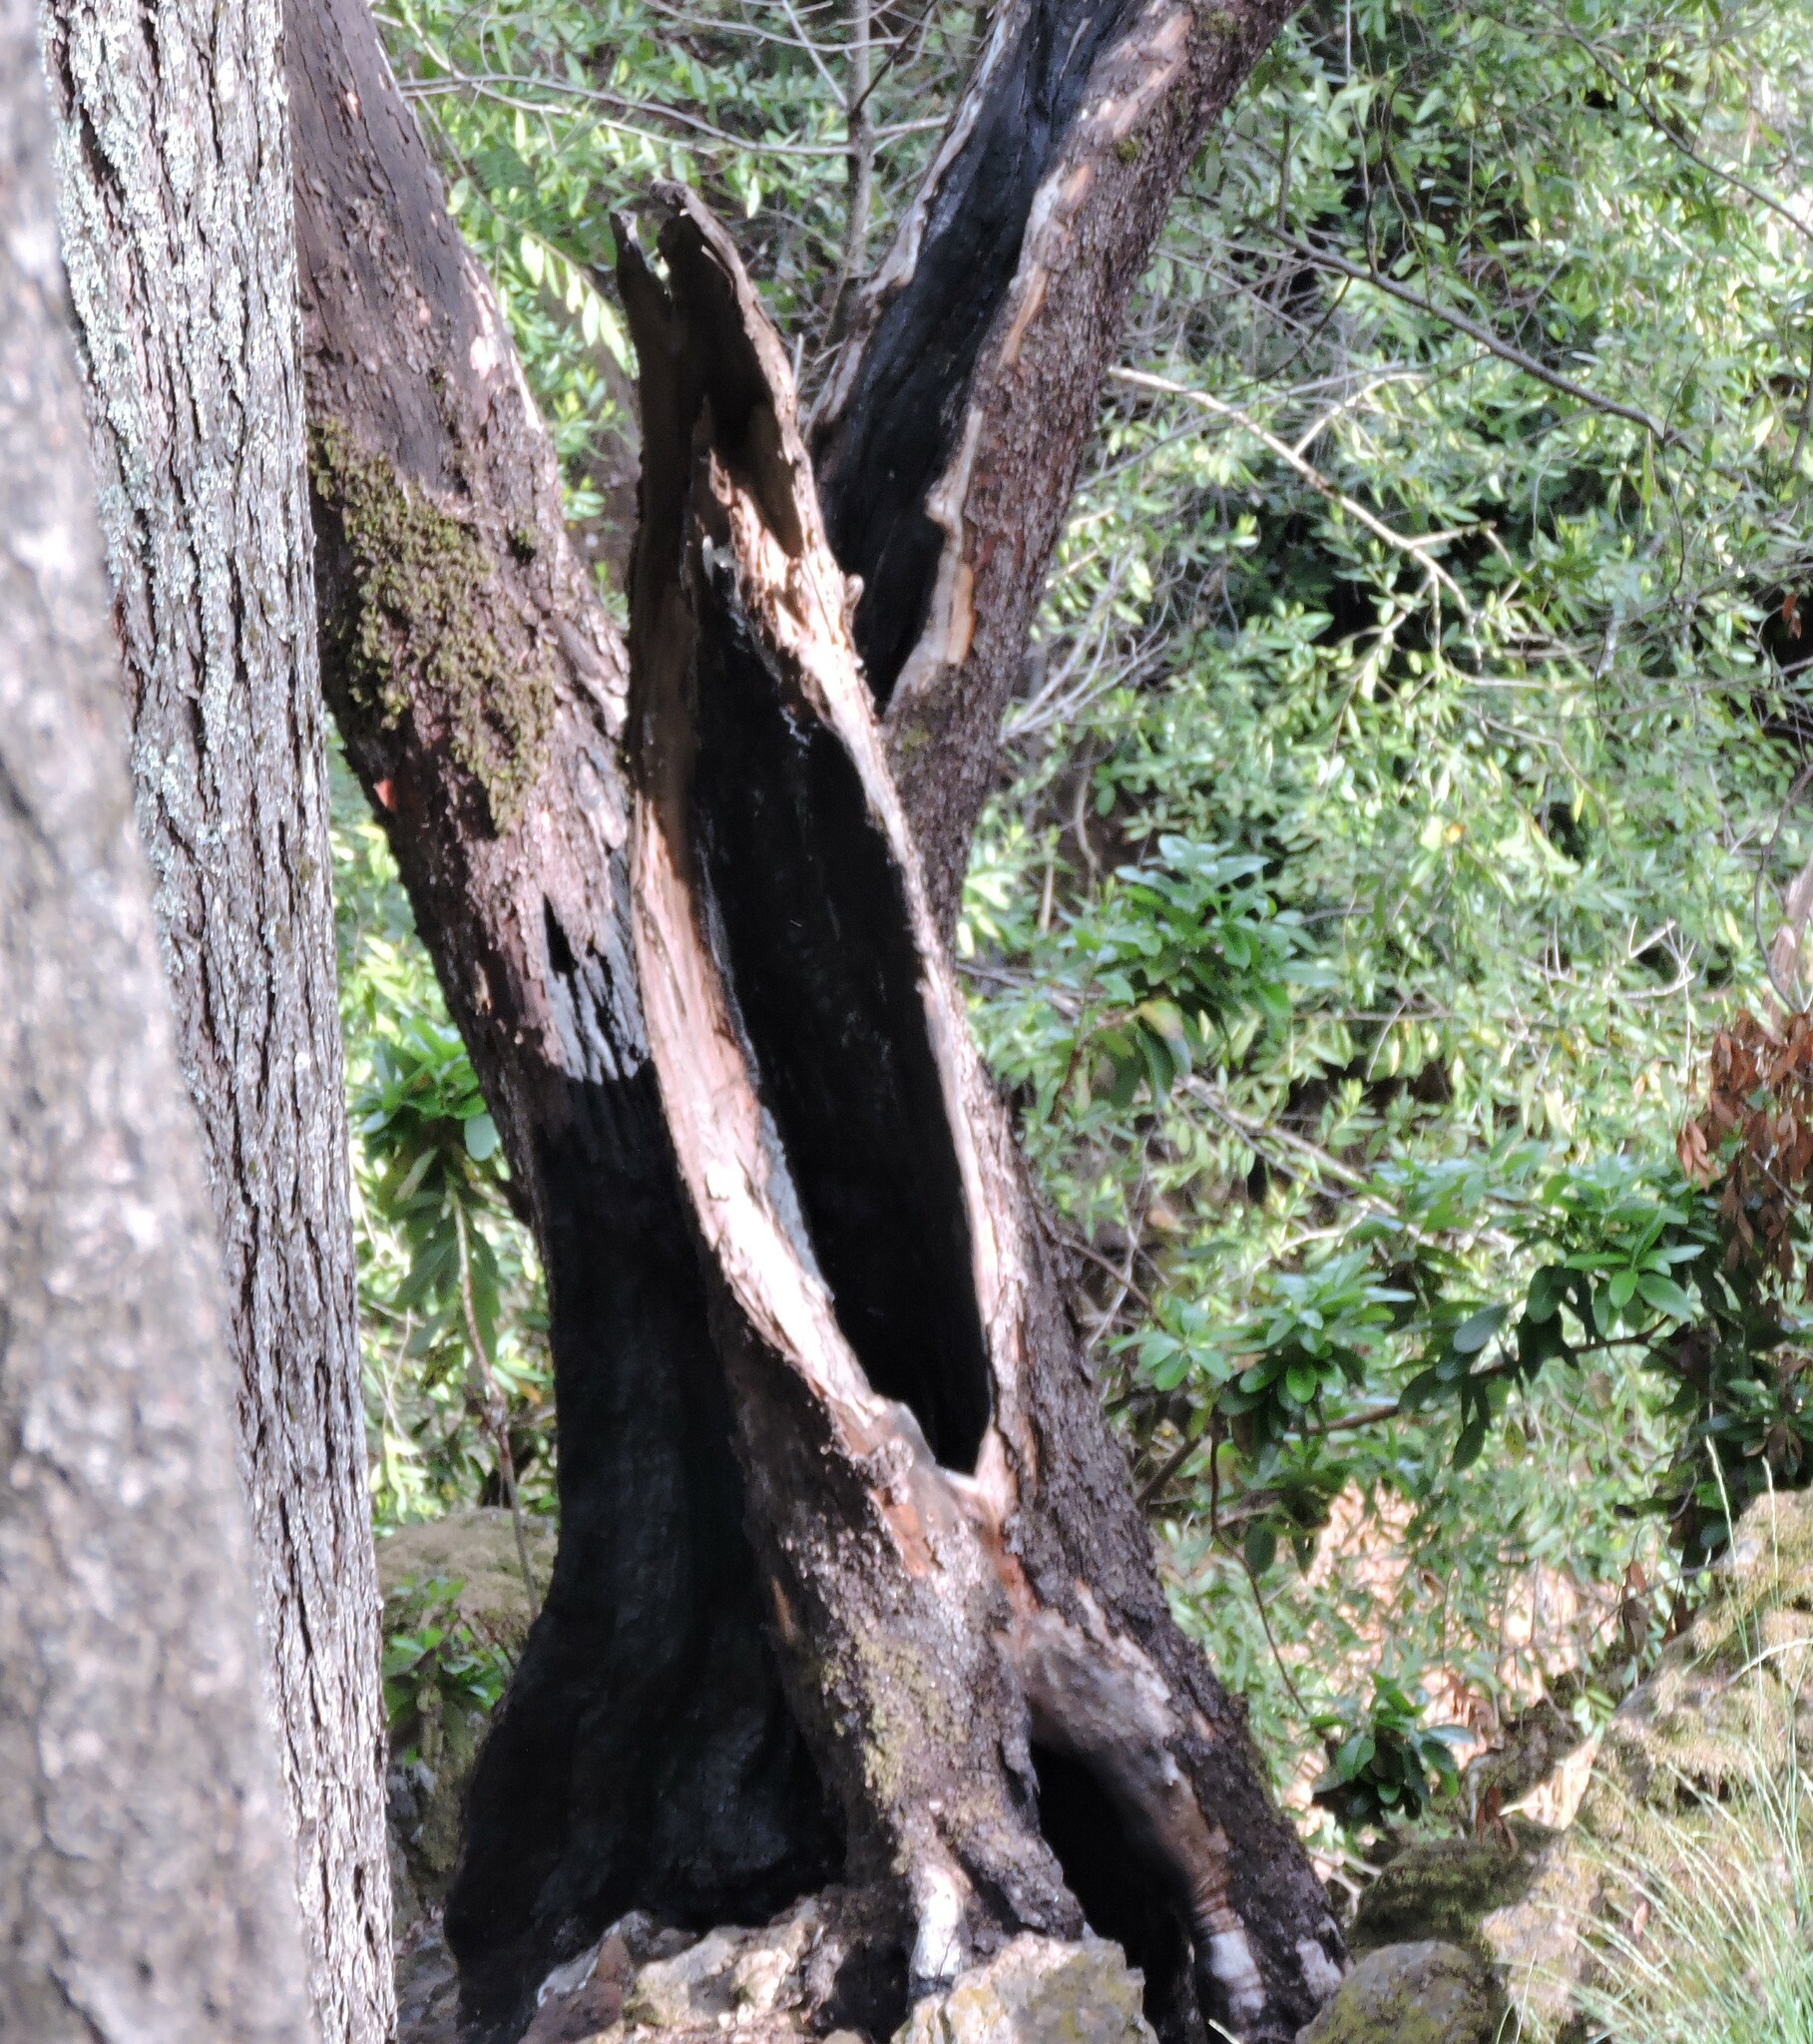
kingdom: Plantae
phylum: Tracheophyta
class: Magnoliopsida
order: Ericales
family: Ericaceae
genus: Arbutus
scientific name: Arbutus menziesii
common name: Pacific madrone
